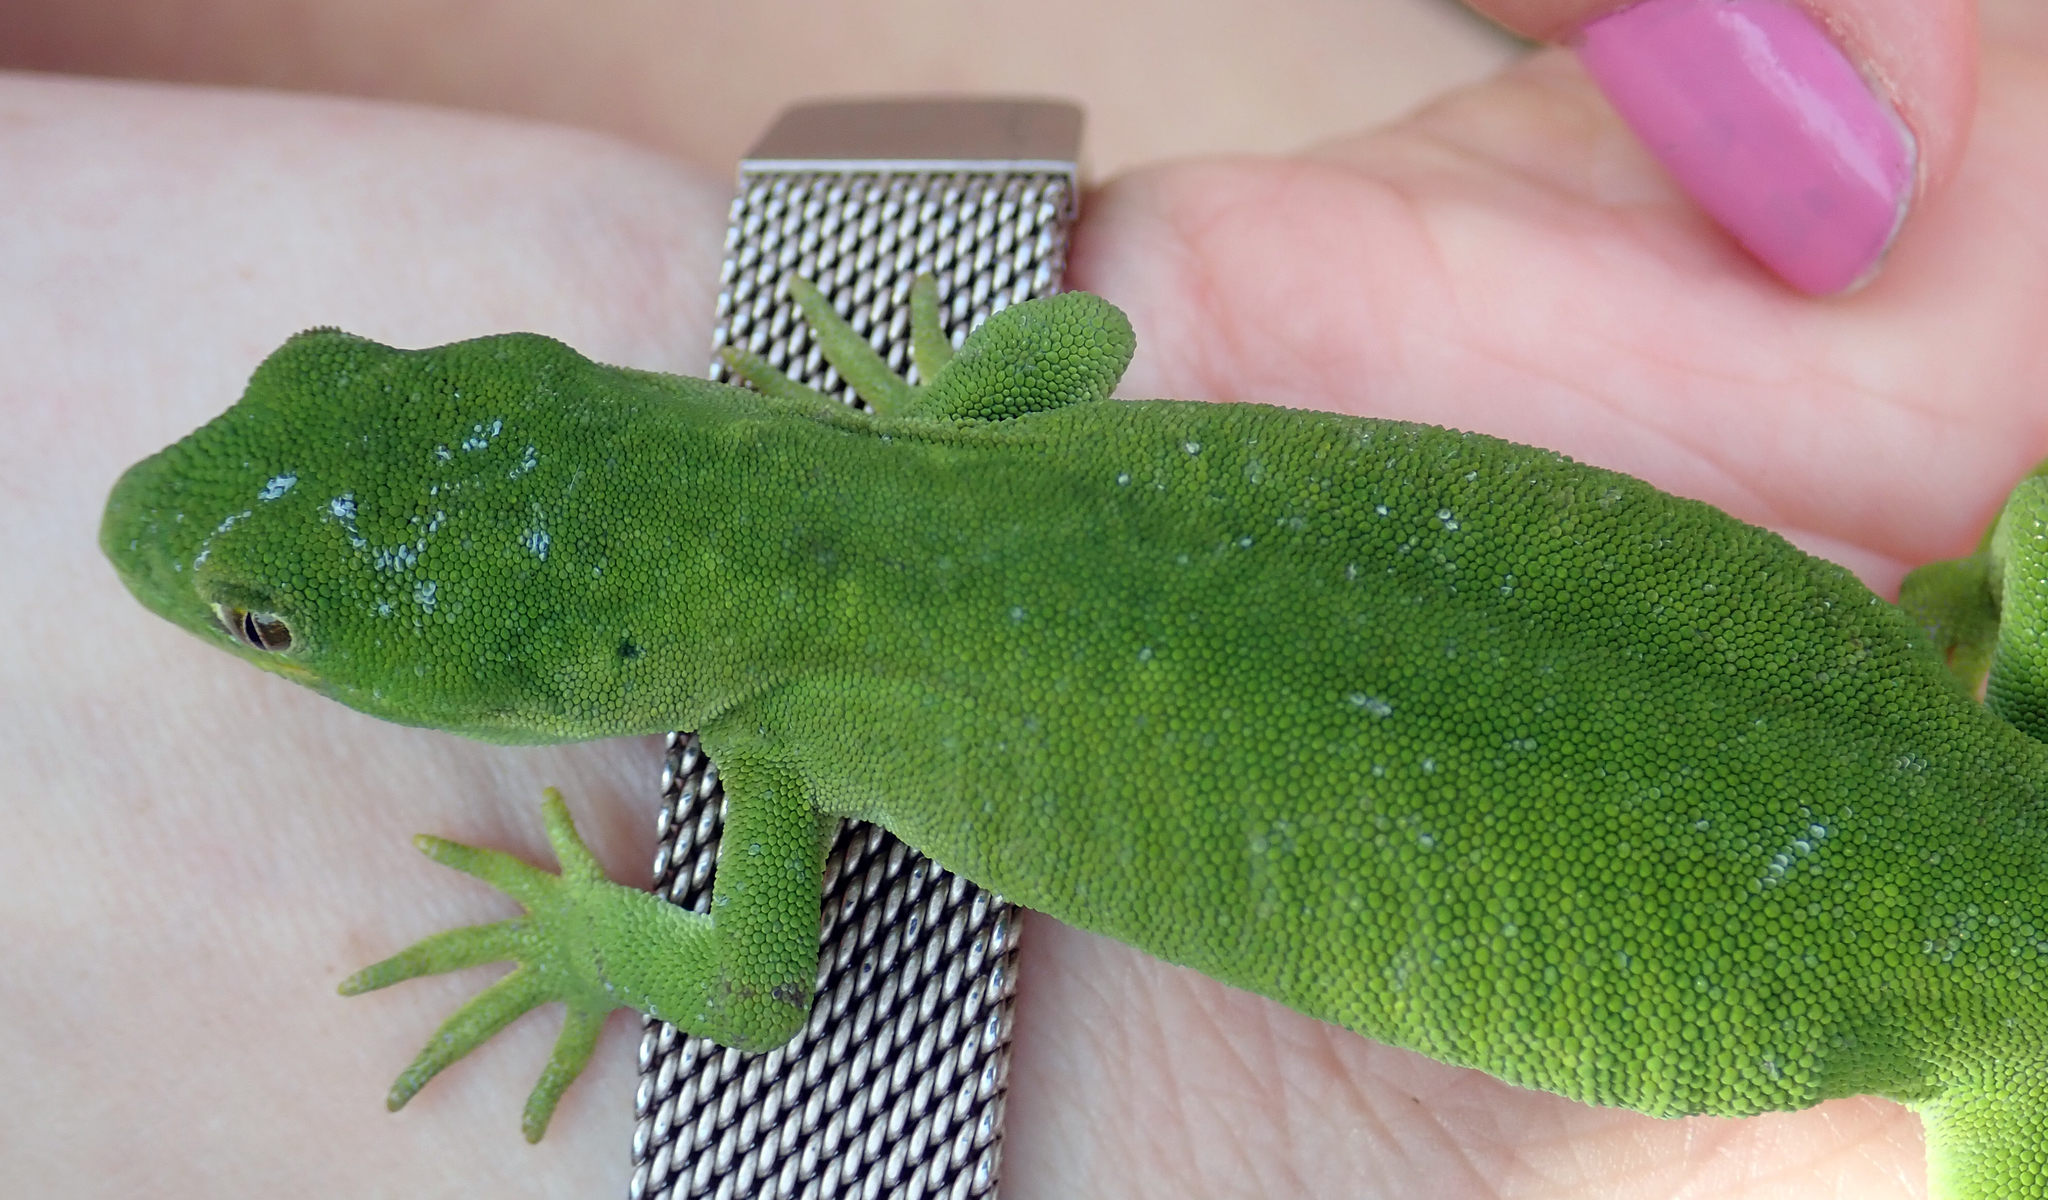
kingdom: Animalia
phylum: Chordata
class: Squamata
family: Diplodactylidae
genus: Naultinus
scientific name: Naultinus stellatus
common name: Nelson green gecko
